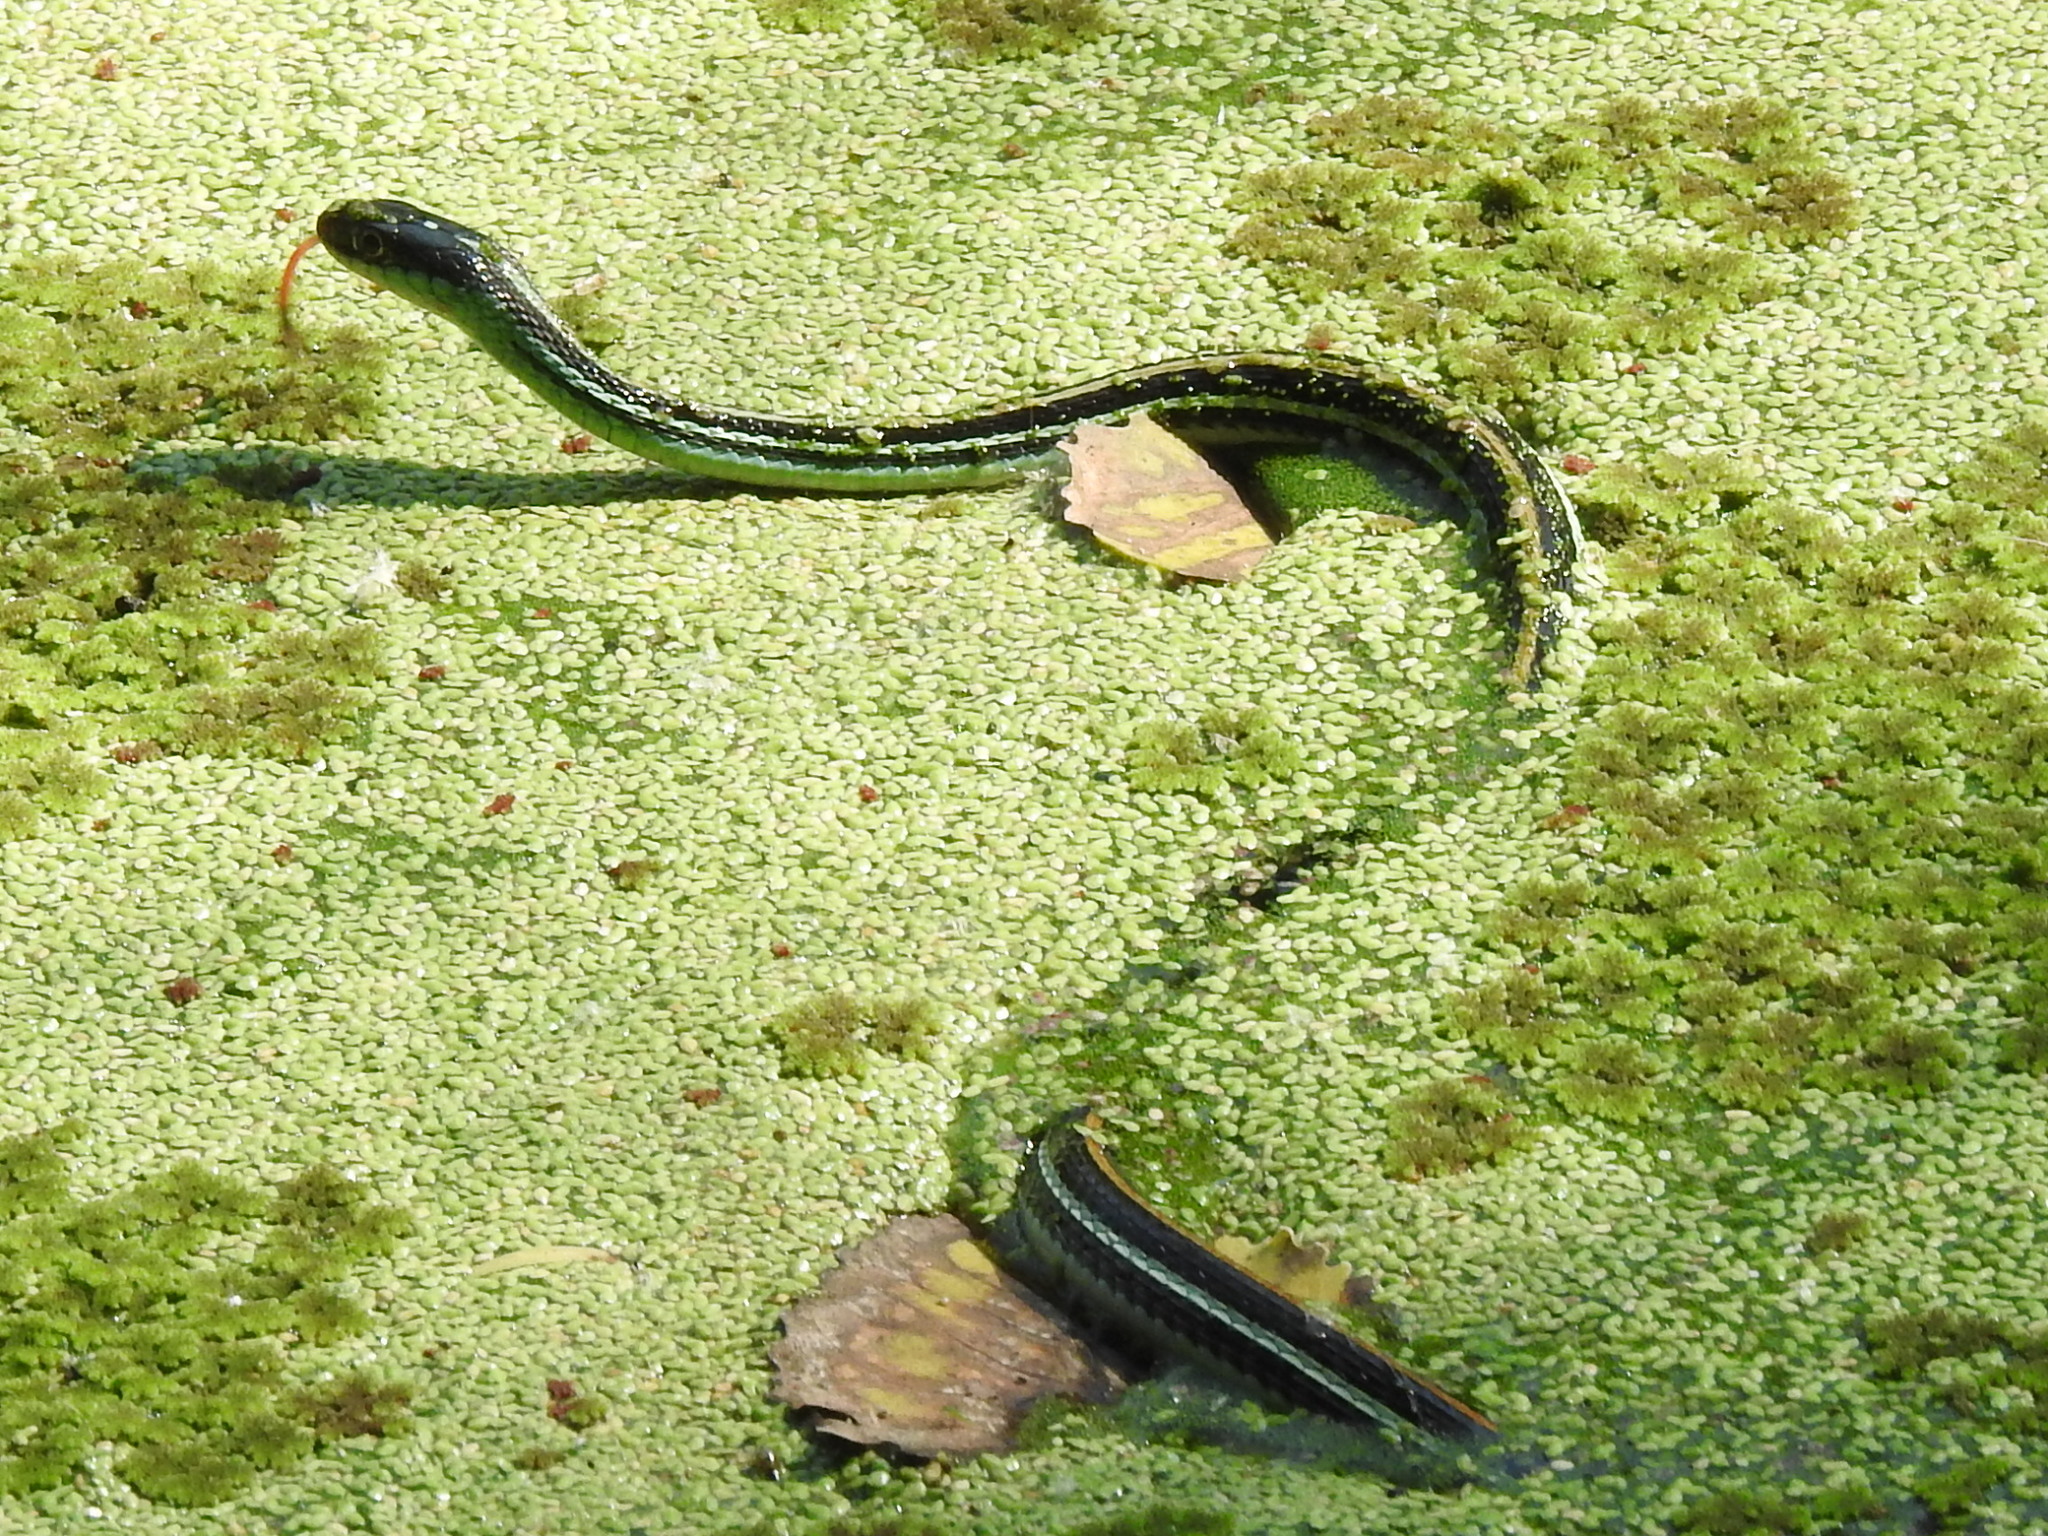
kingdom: Animalia
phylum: Chordata
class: Squamata
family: Colubridae
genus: Thamnophis
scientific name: Thamnophis proximus
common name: Western ribbon snake
